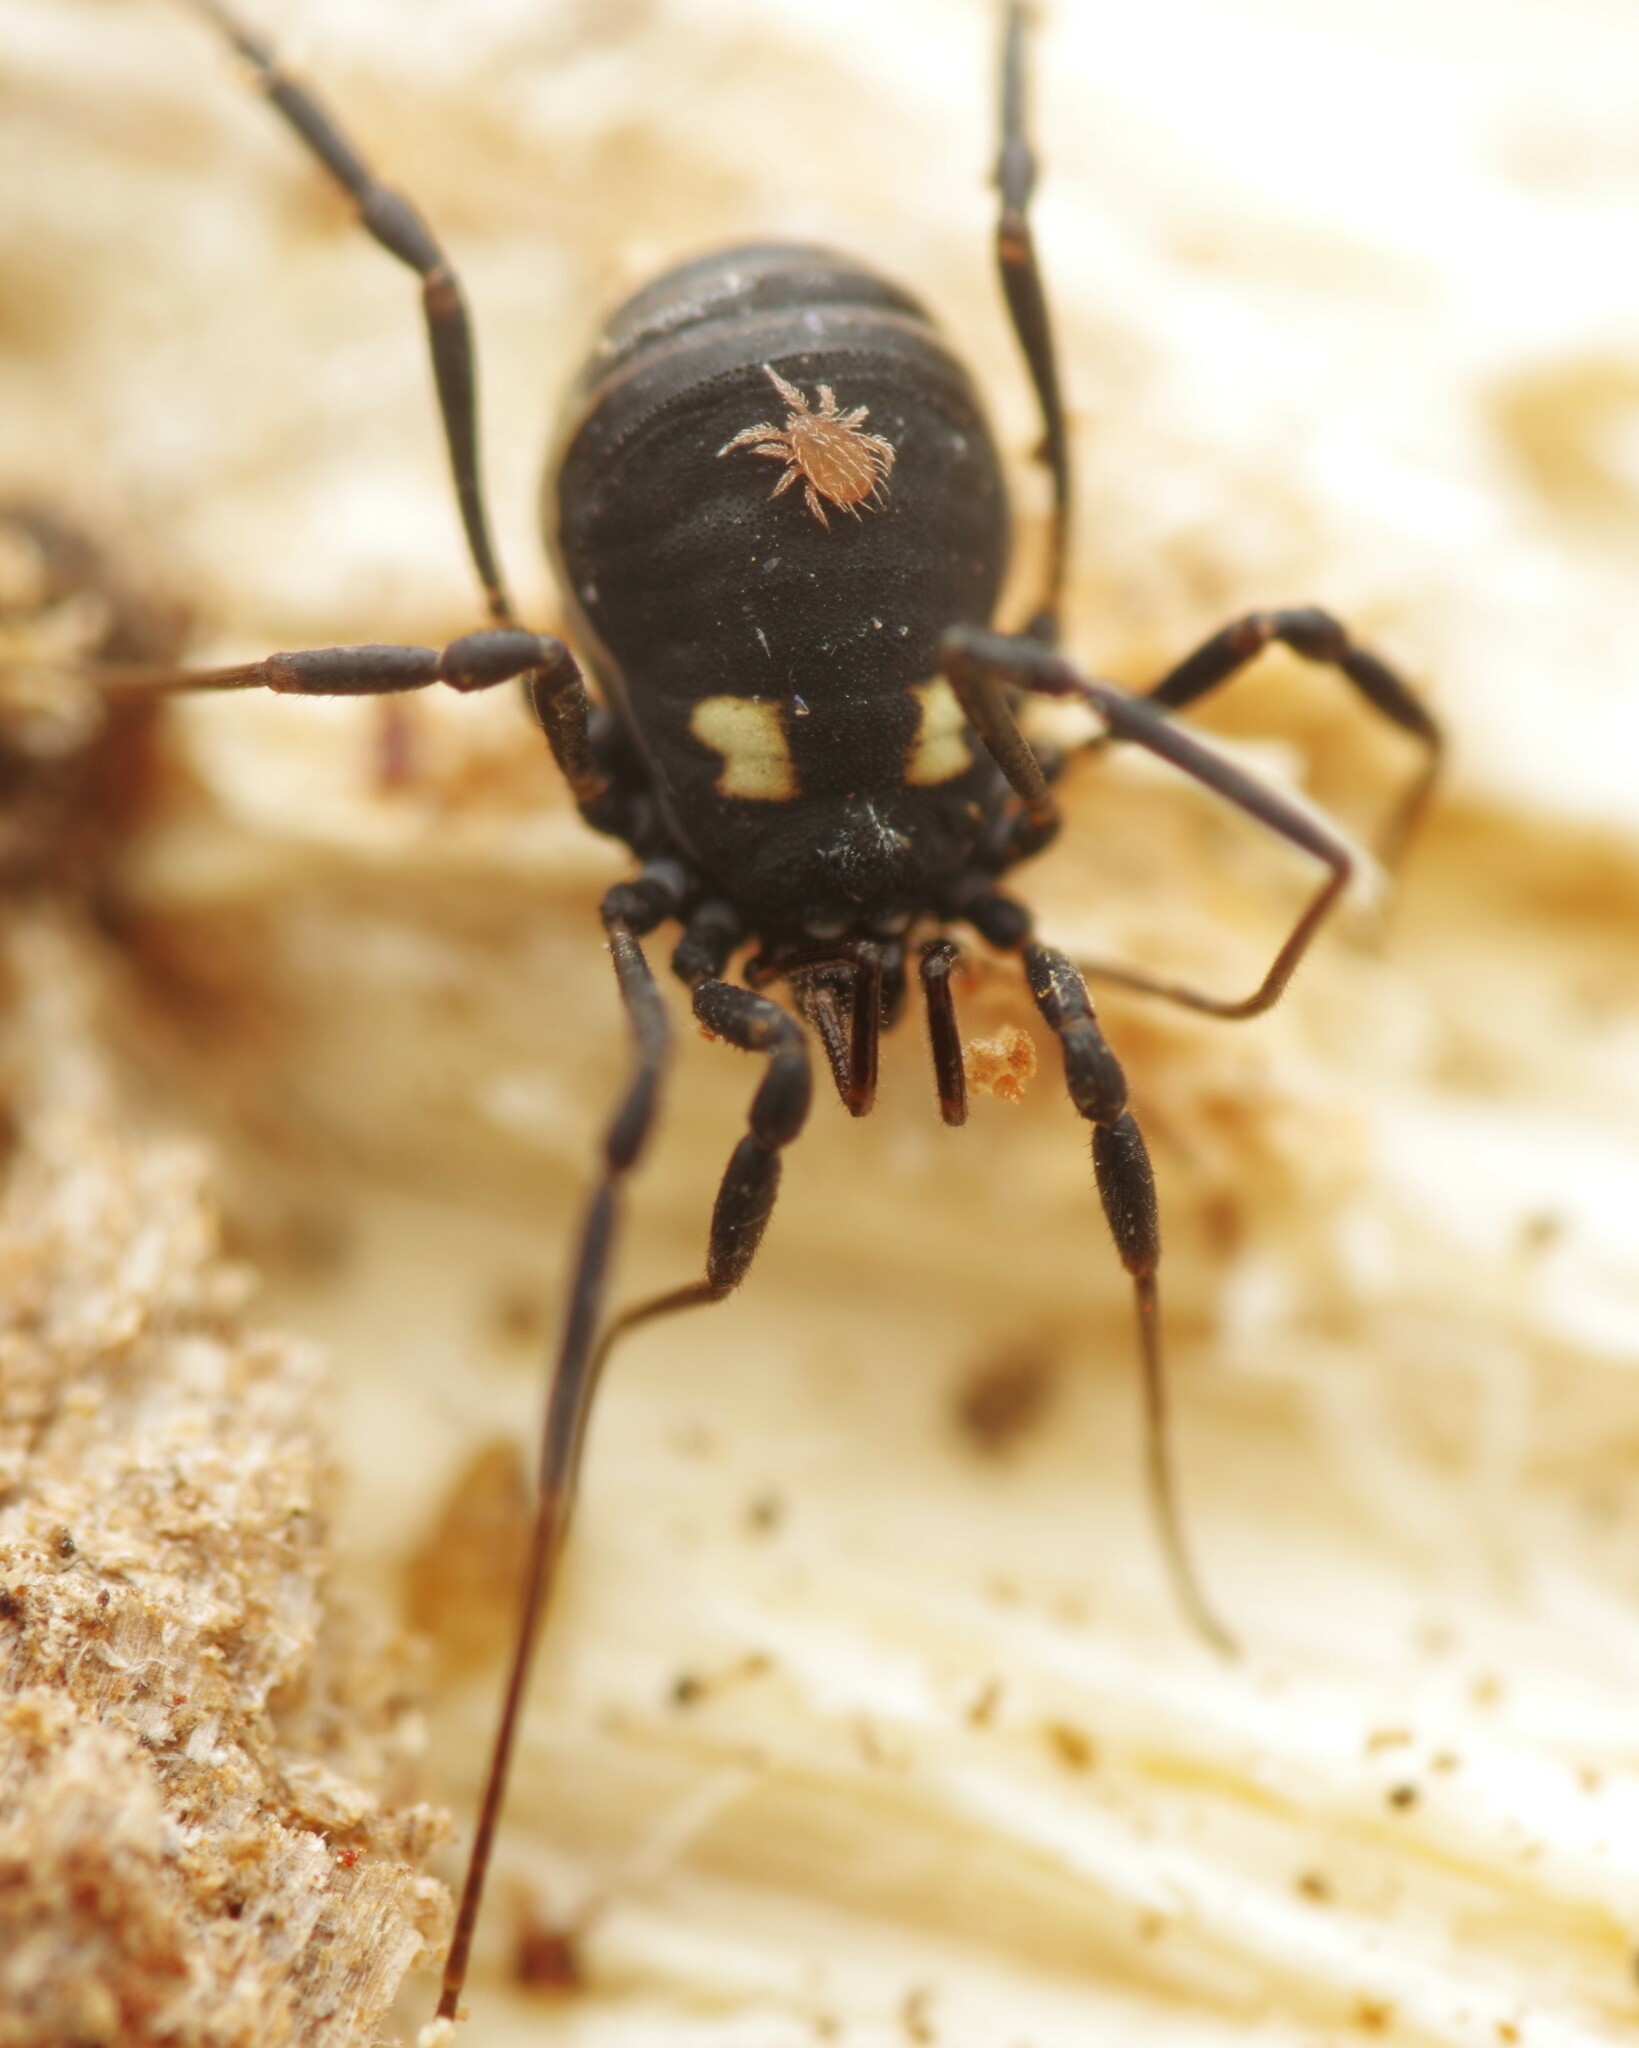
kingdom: Animalia
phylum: Arthropoda
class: Arachnida
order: Opiliones
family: Nemastomatidae
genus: Nemastoma
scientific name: Nemastoma bimaculatum
